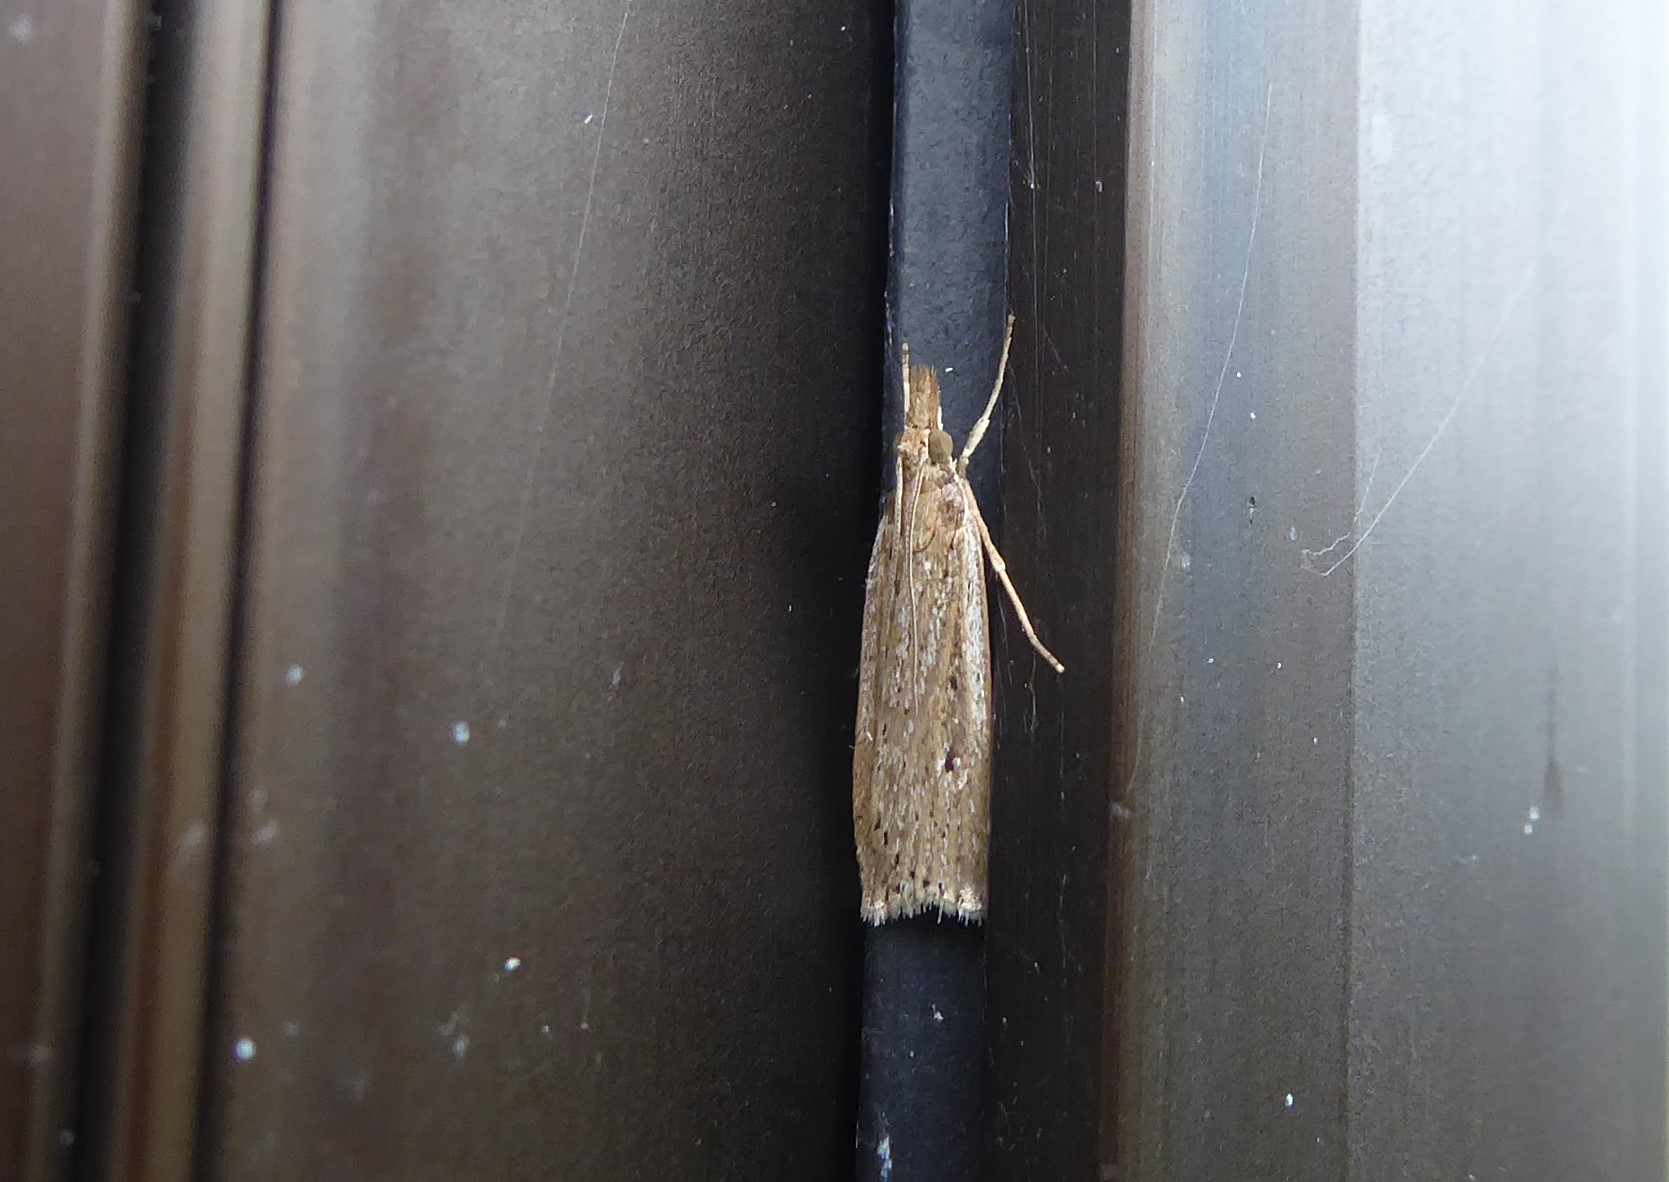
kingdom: Animalia
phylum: Arthropoda
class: Insecta
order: Lepidoptera
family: Crambidae
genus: Eudonia
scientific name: Eudonia sabulosella
